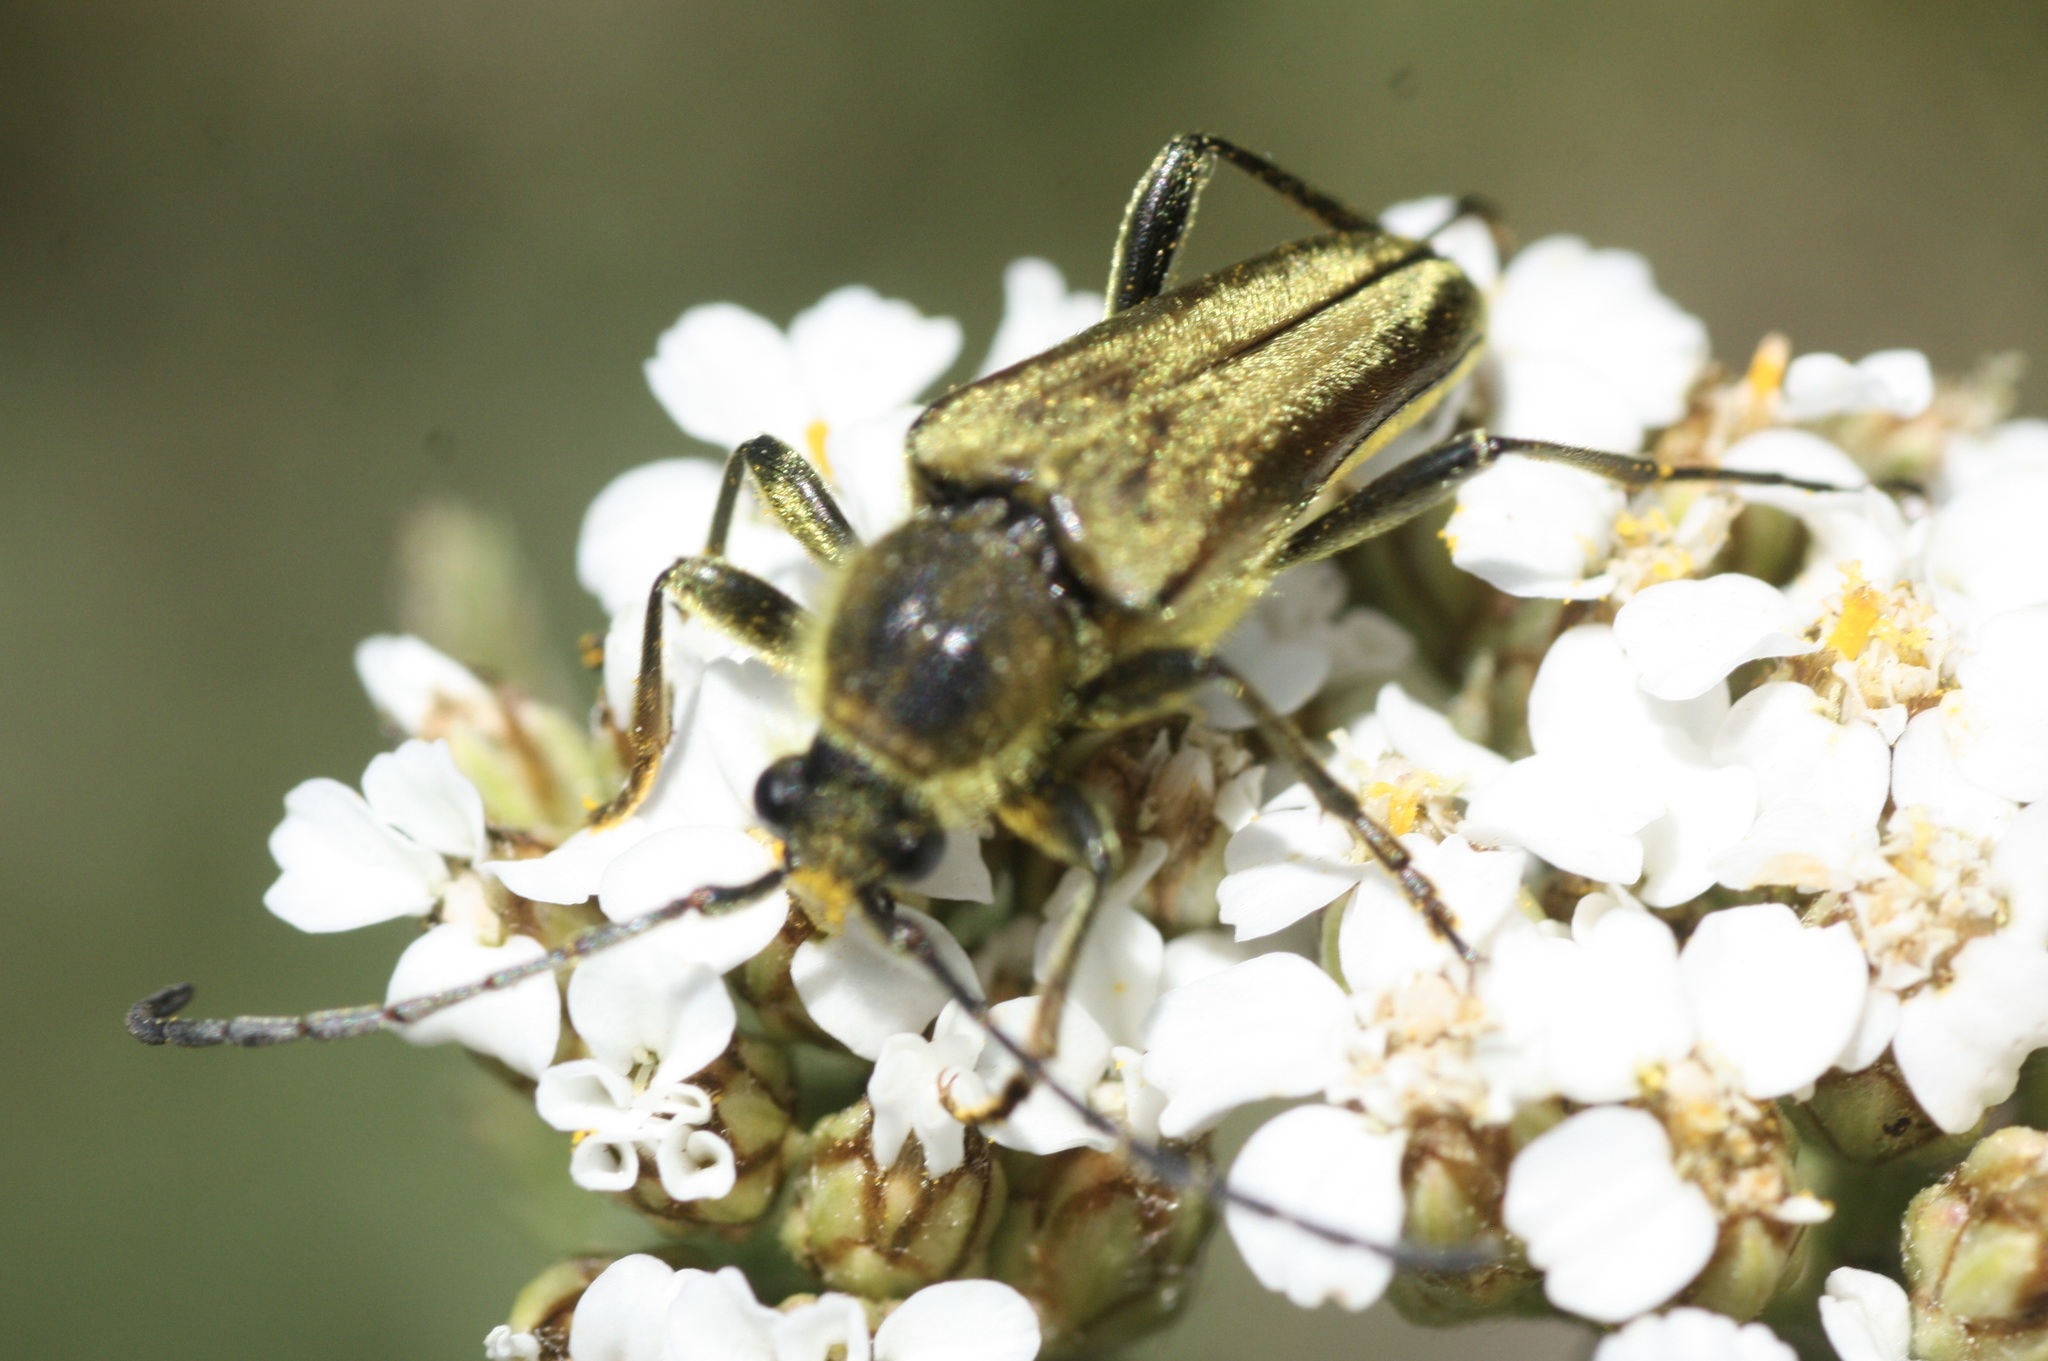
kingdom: Animalia
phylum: Arthropoda
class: Insecta
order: Coleoptera
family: Cerambycidae
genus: Cosmosalia
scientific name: Cosmosalia chrysocoma
